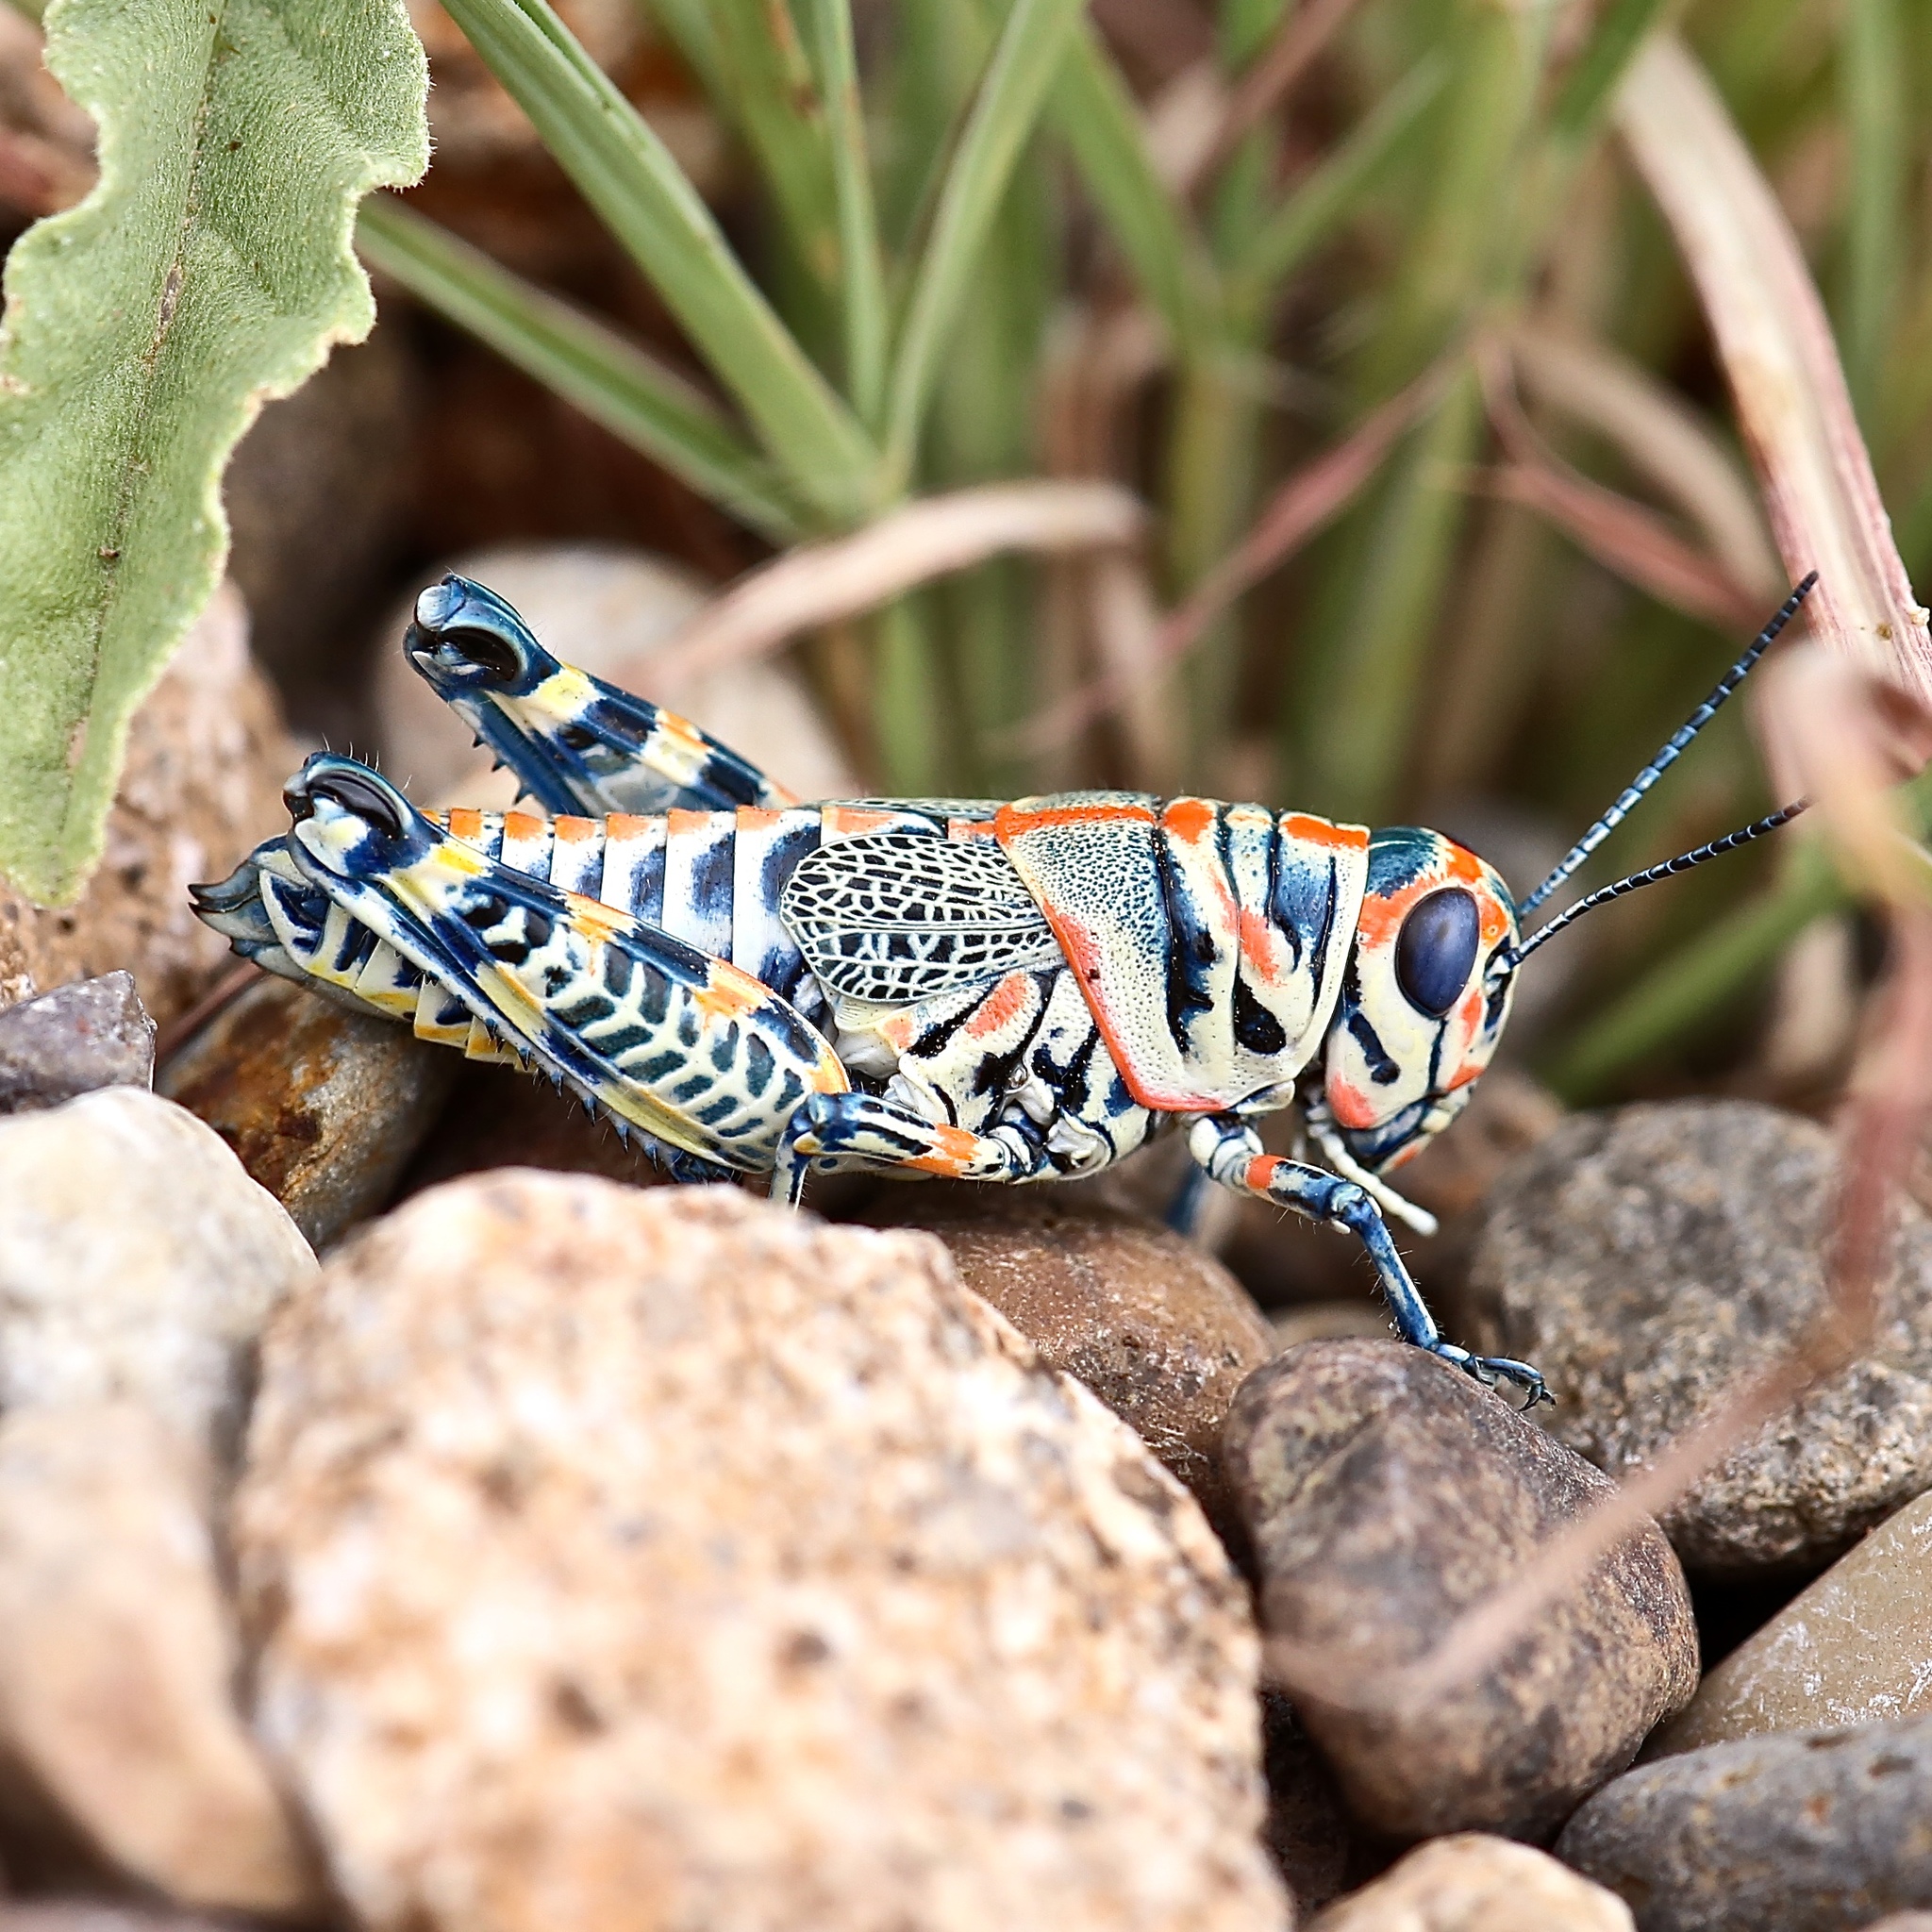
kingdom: Animalia
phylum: Arthropoda
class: Insecta
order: Orthoptera
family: Acrididae
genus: Dactylotum
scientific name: Dactylotum bicolor
